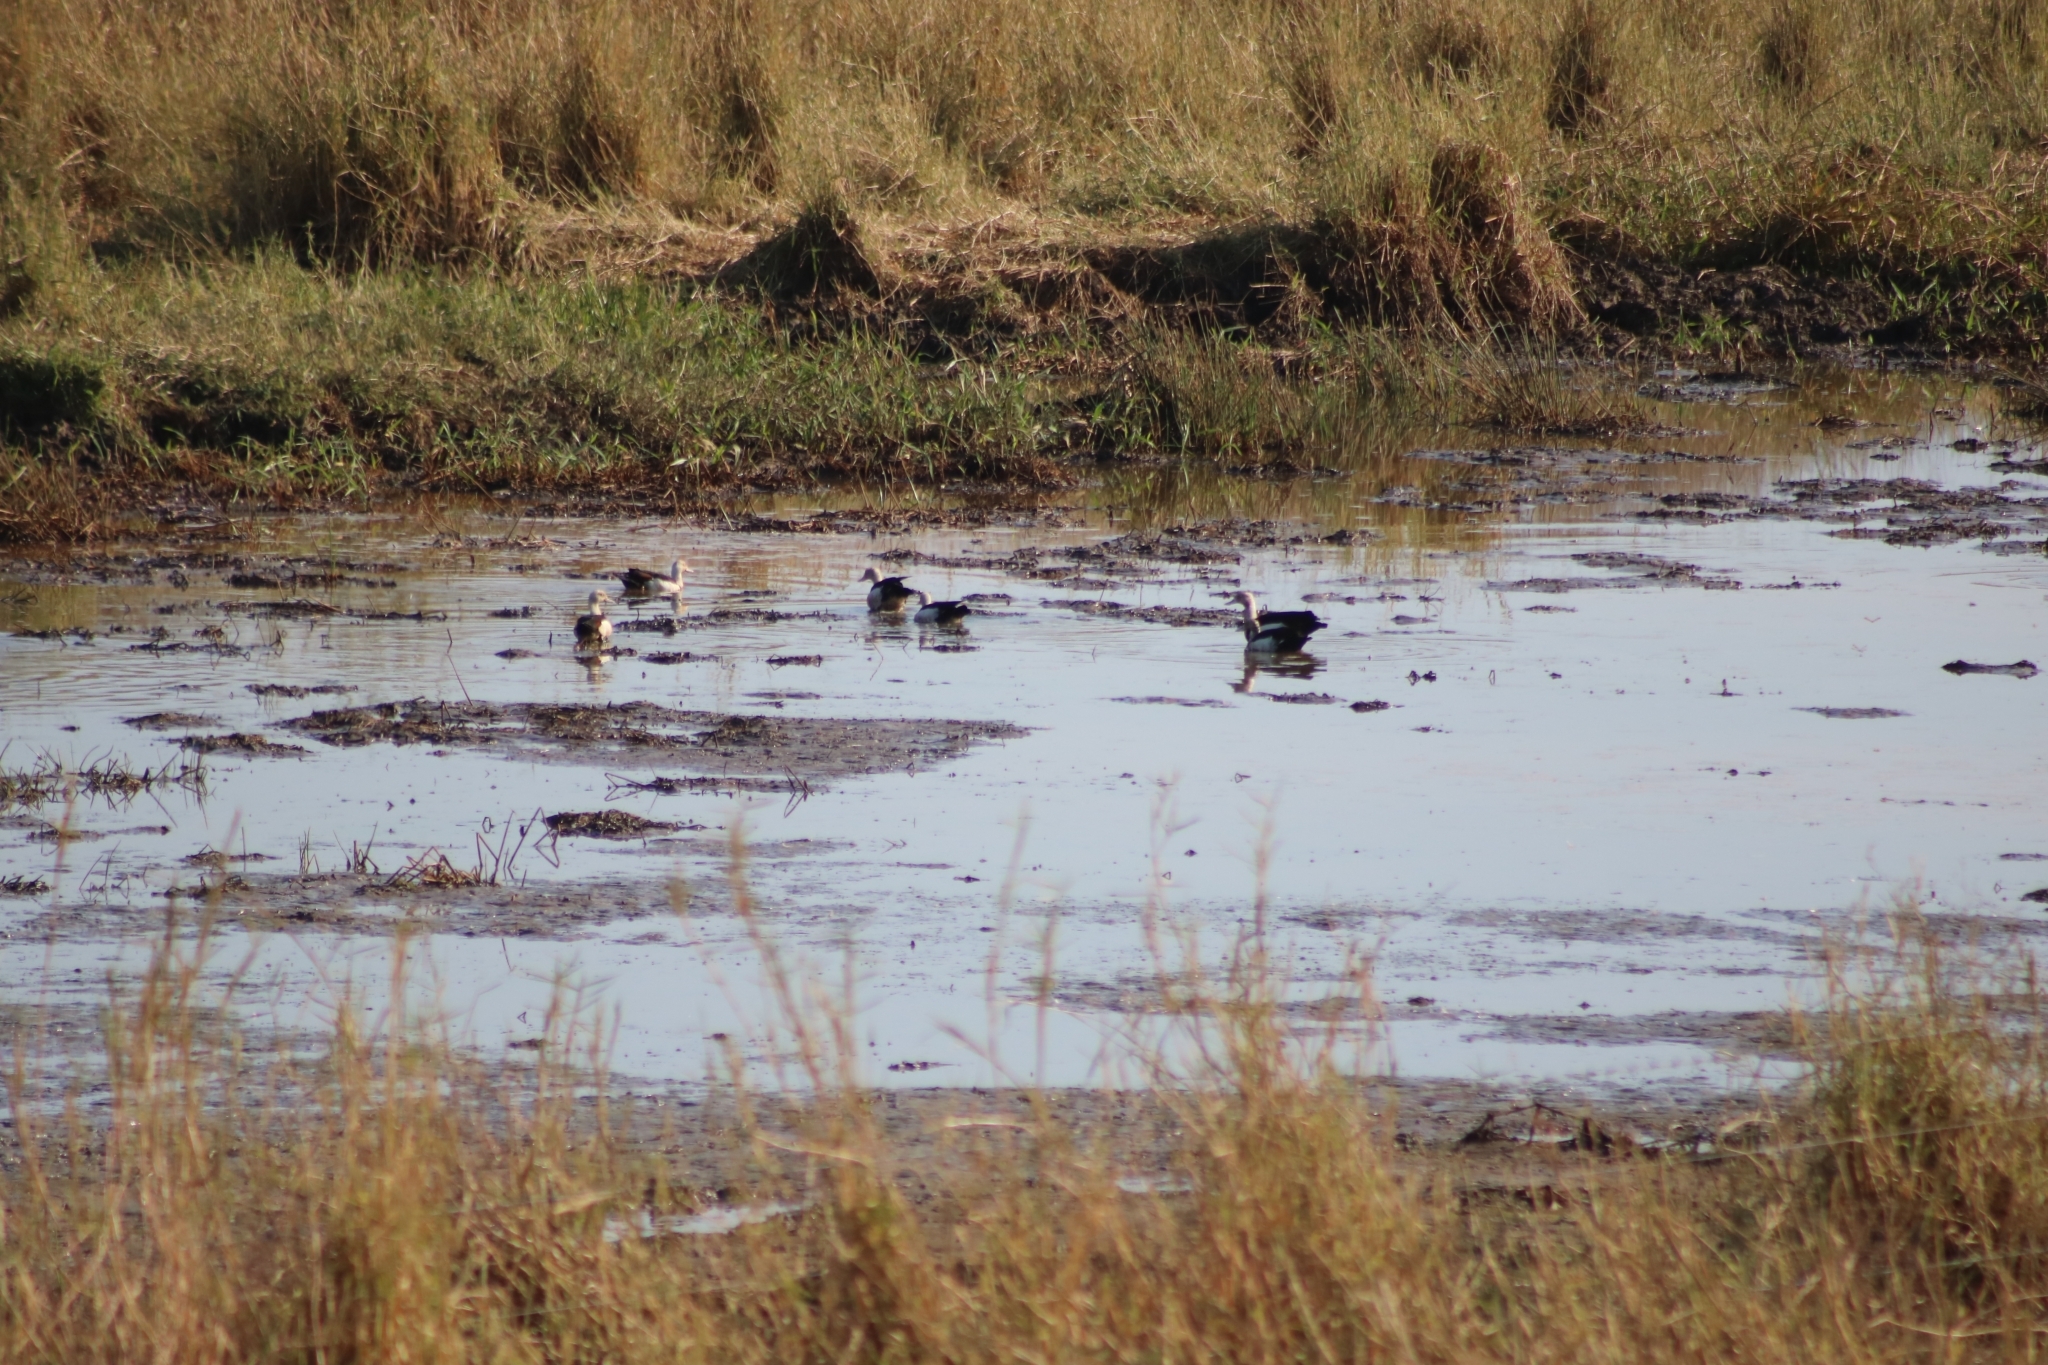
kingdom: Animalia
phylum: Chordata
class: Aves
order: Anseriformes
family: Anatidae
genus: Radjah
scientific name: Radjah radjah
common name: Radjah shelduck
